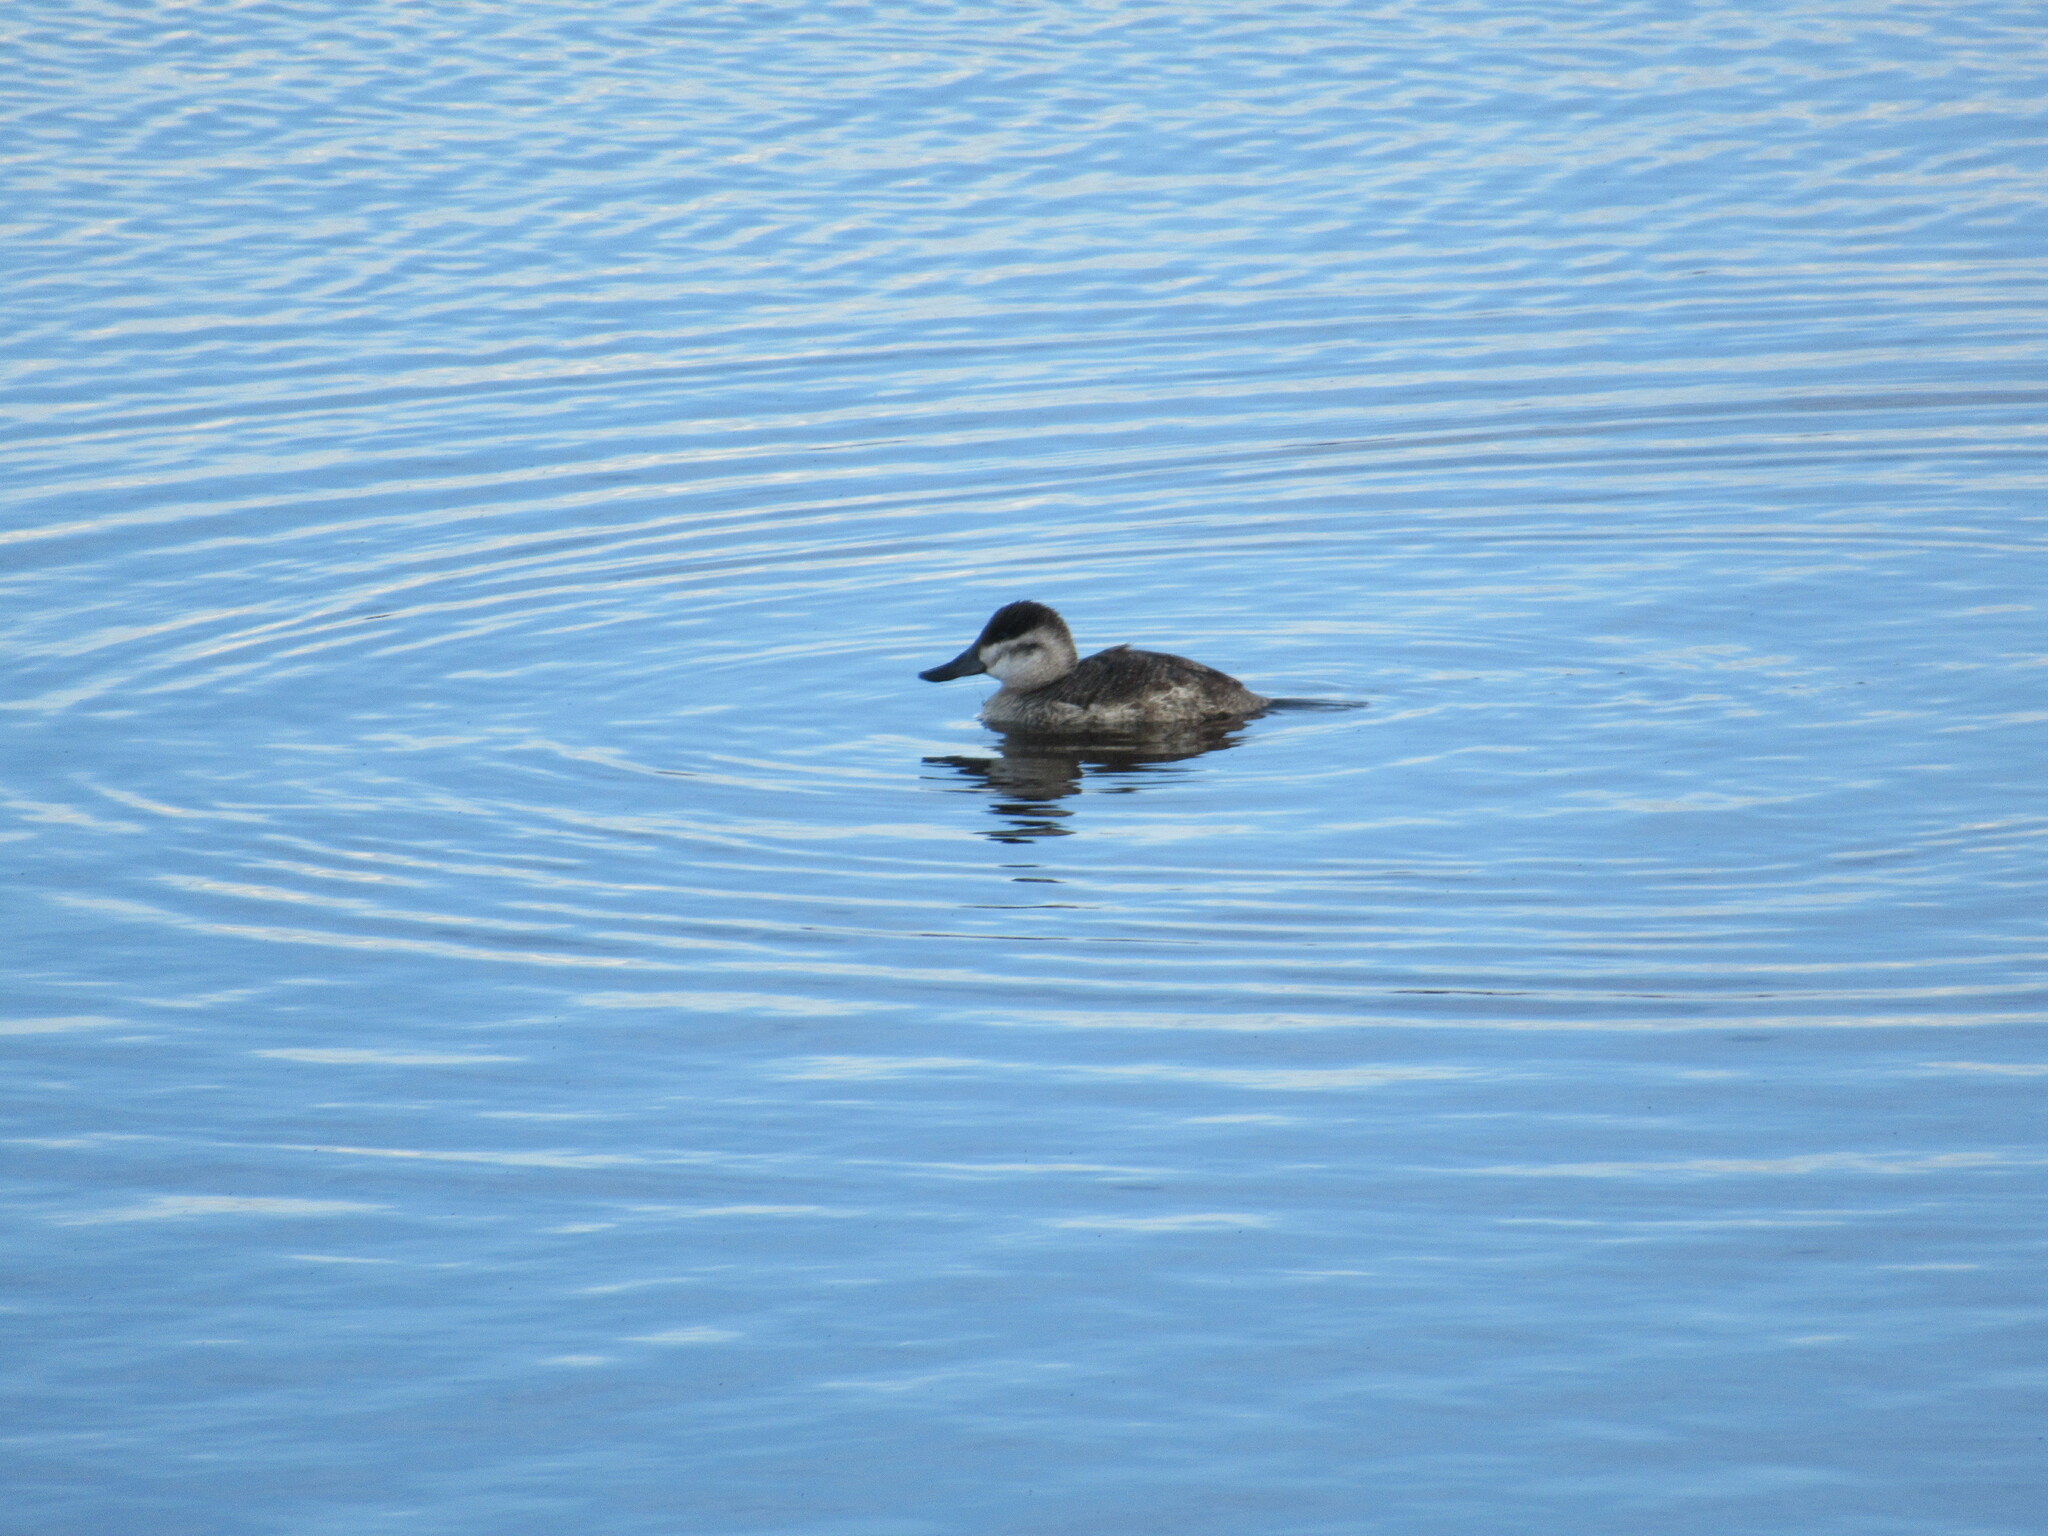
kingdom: Animalia
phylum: Chordata
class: Aves
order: Anseriformes
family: Anatidae
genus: Oxyura
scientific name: Oxyura jamaicensis
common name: Ruddy duck
